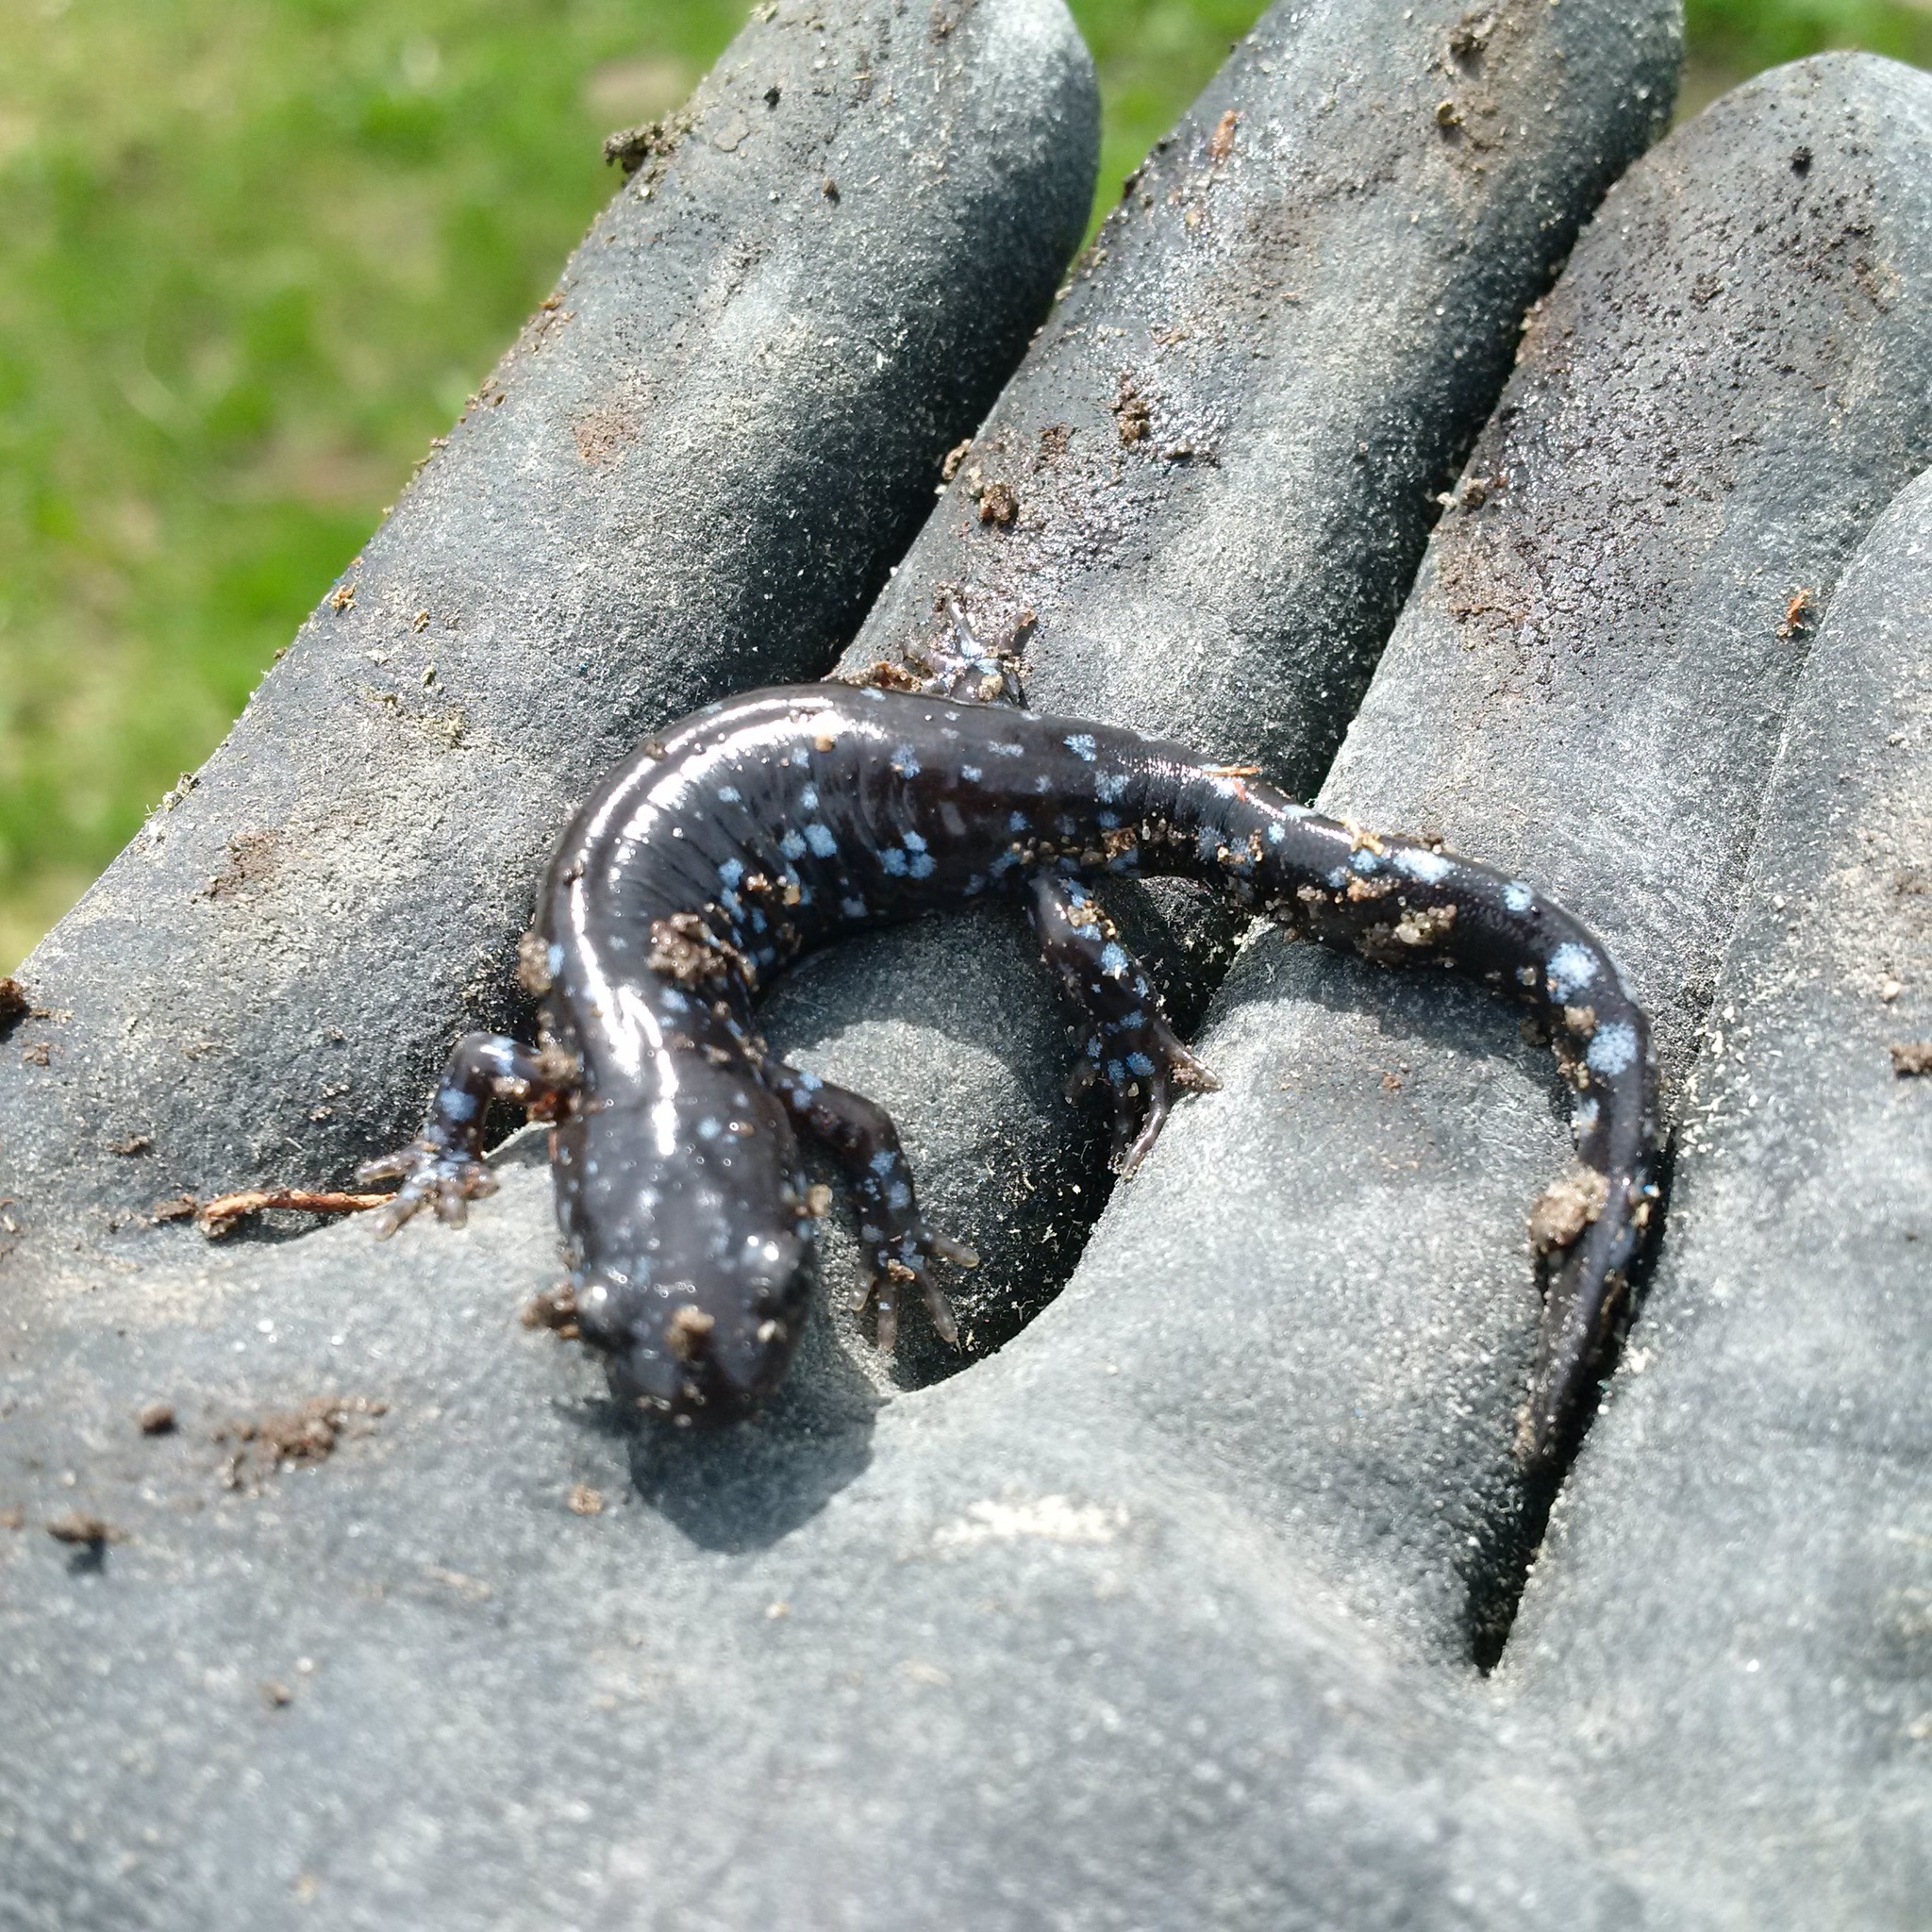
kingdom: Animalia
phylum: Chordata
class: Amphibia
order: Caudata
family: Ambystomatidae
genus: Ambystoma
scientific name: Ambystoma laterale
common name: Blue-spotted salamander
